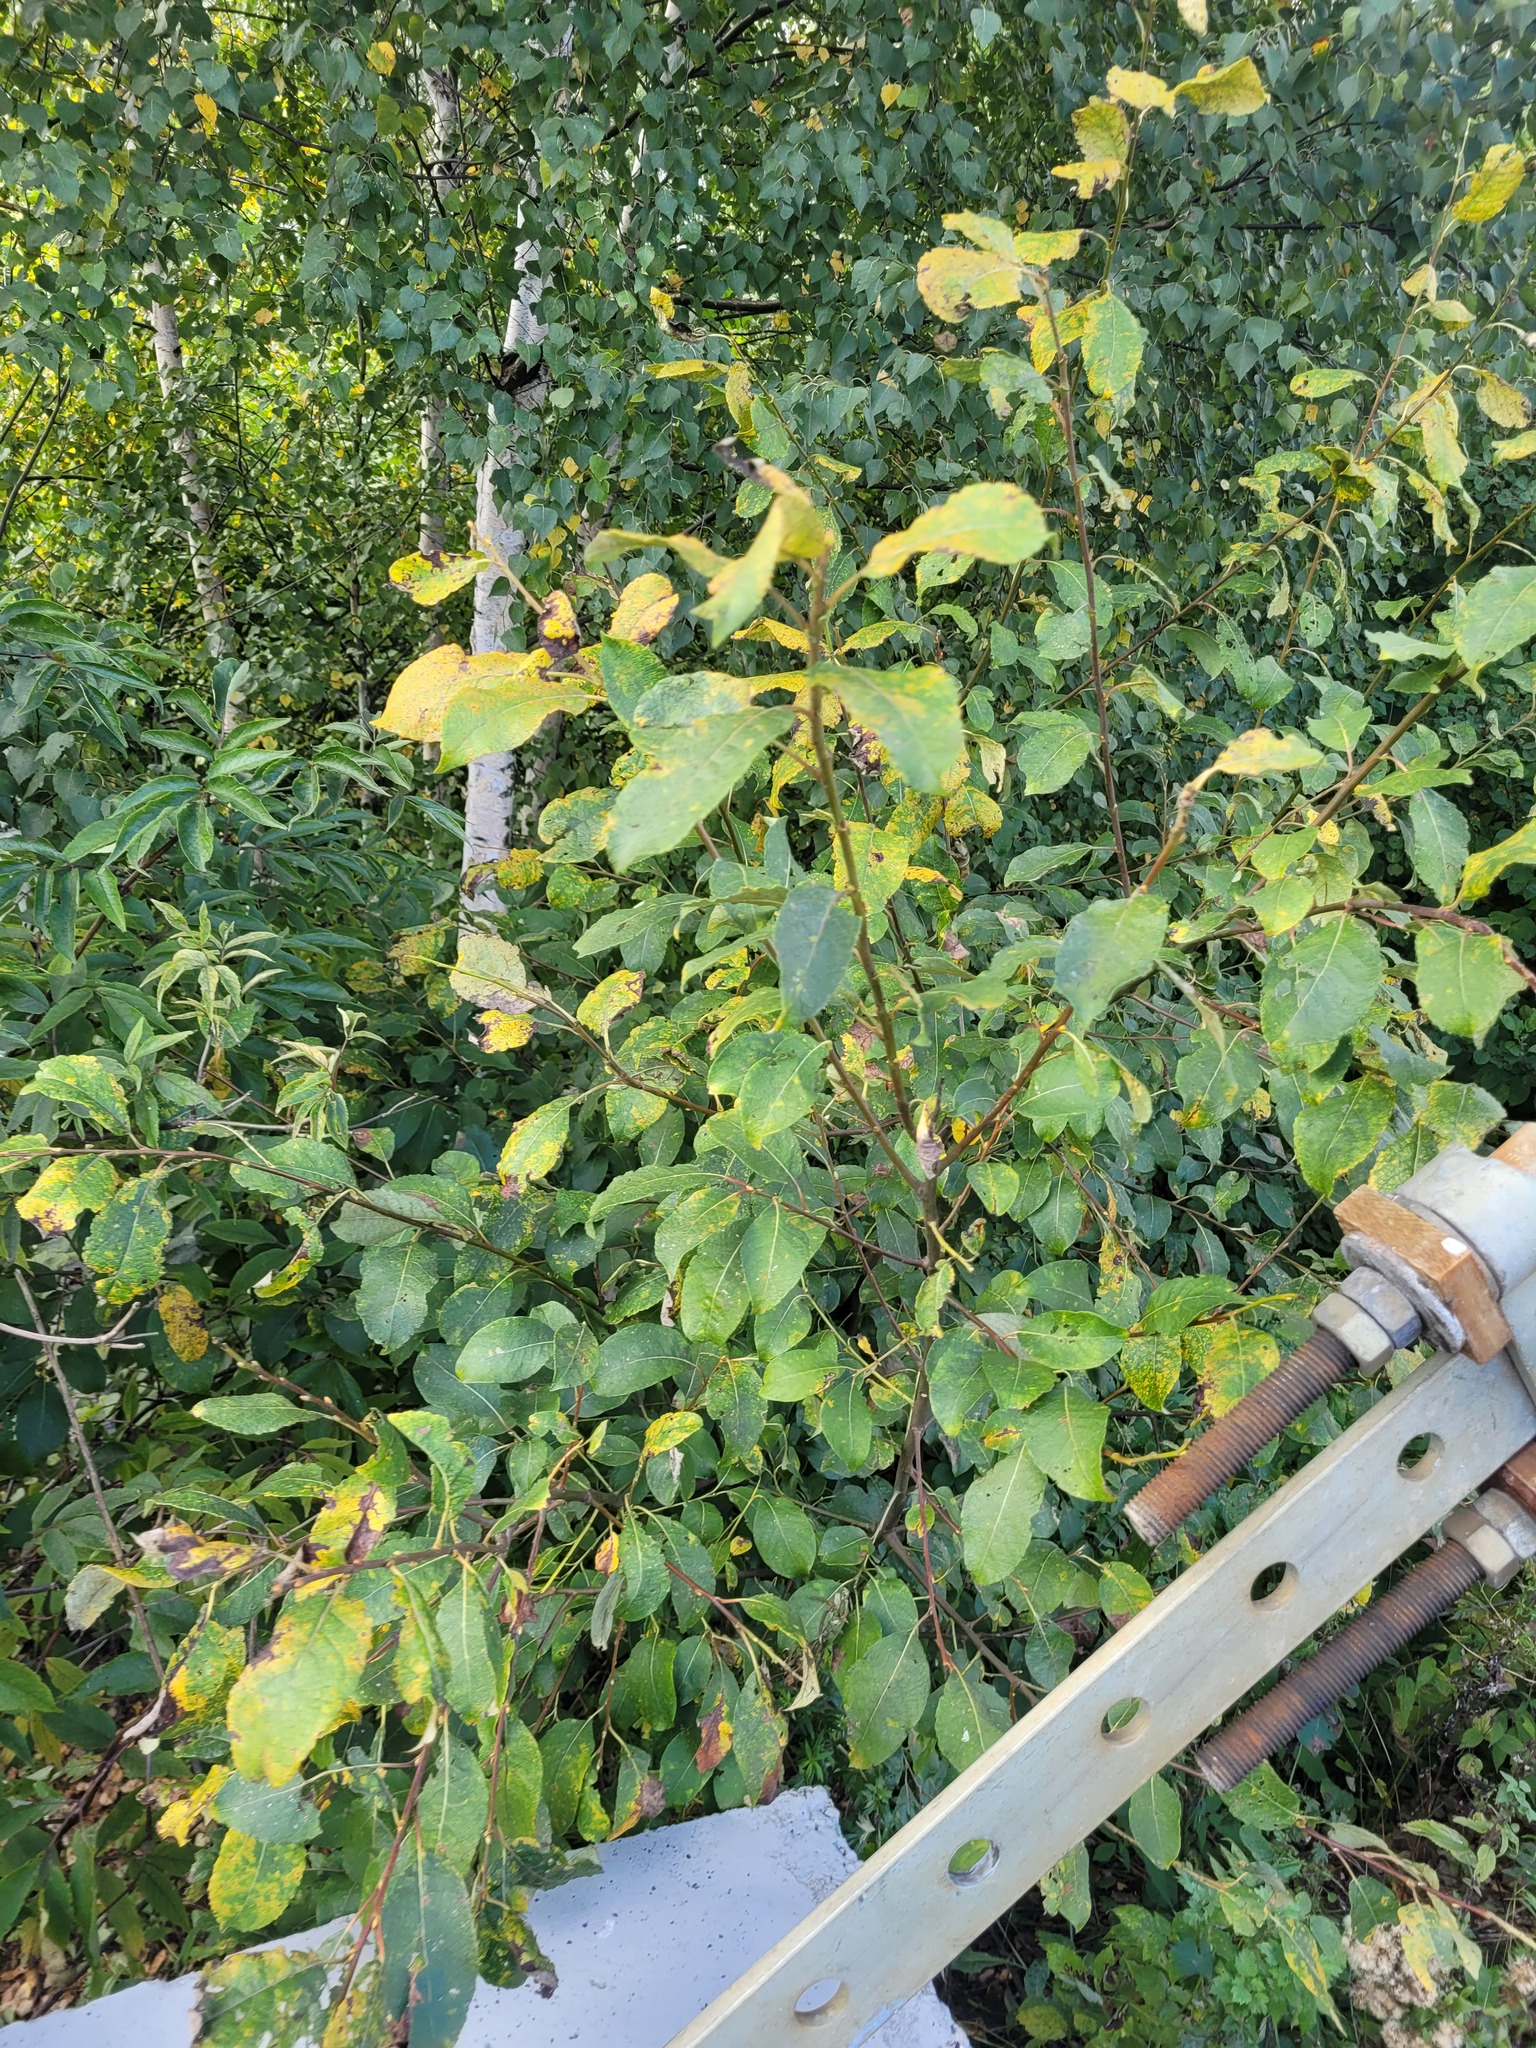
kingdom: Plantae
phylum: Tracheophyta
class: Magnoliopsida
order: Malpighiales
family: Salicaceae
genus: Salix
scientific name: Salix caprea
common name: Goat willow
